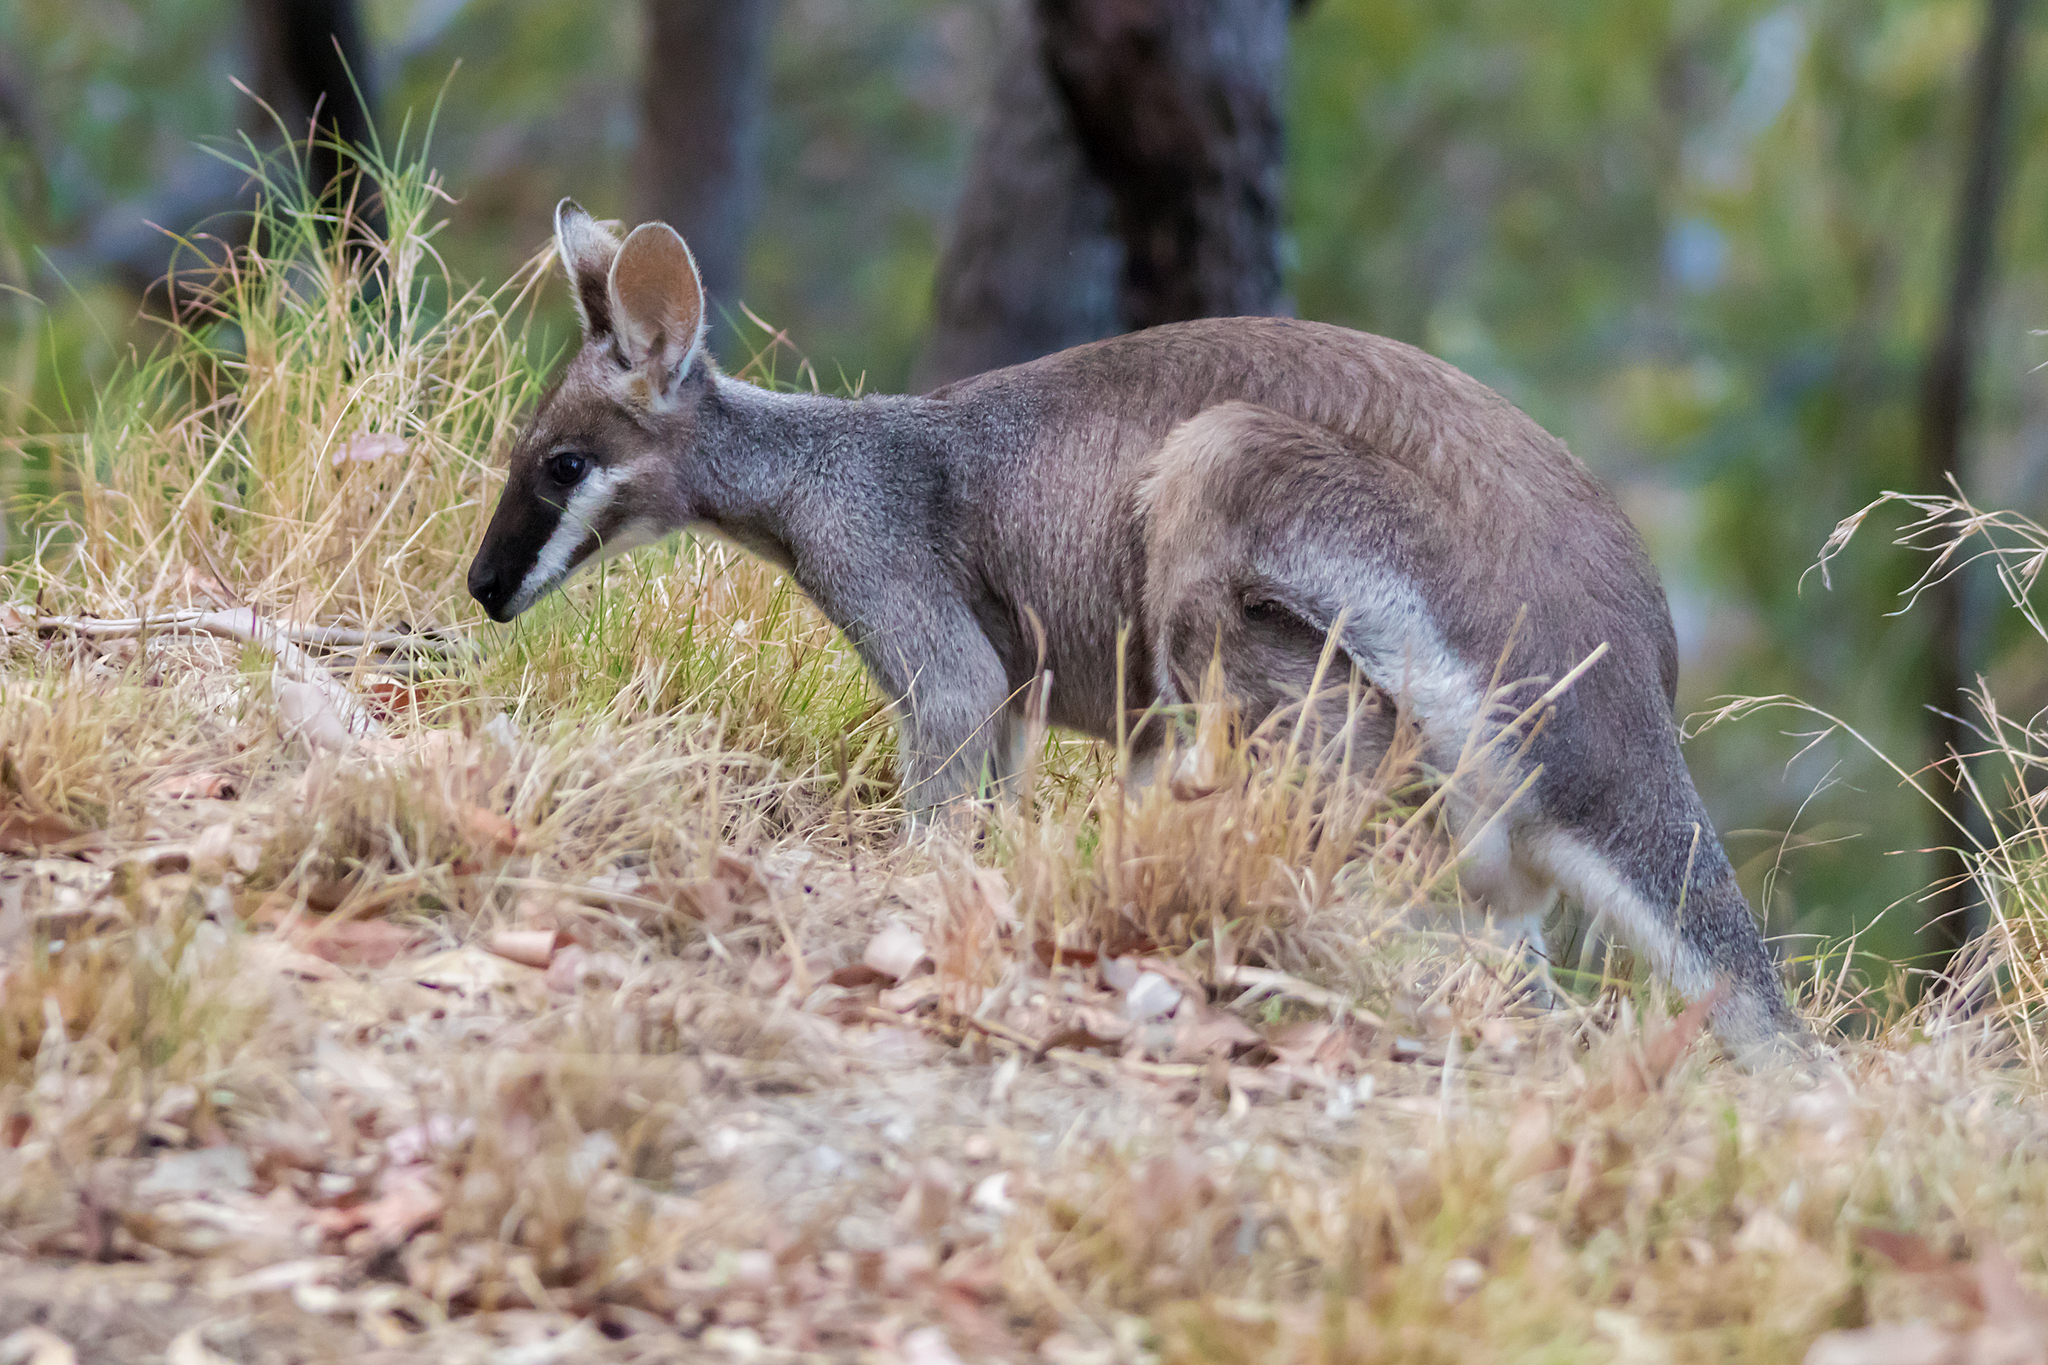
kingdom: Animalia
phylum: Chordata
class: Mammalia
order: Diprotodontia
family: Macropodidae
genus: Notamacropus
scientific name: Notamacropus parryi
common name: Whip-tailed wallaby
